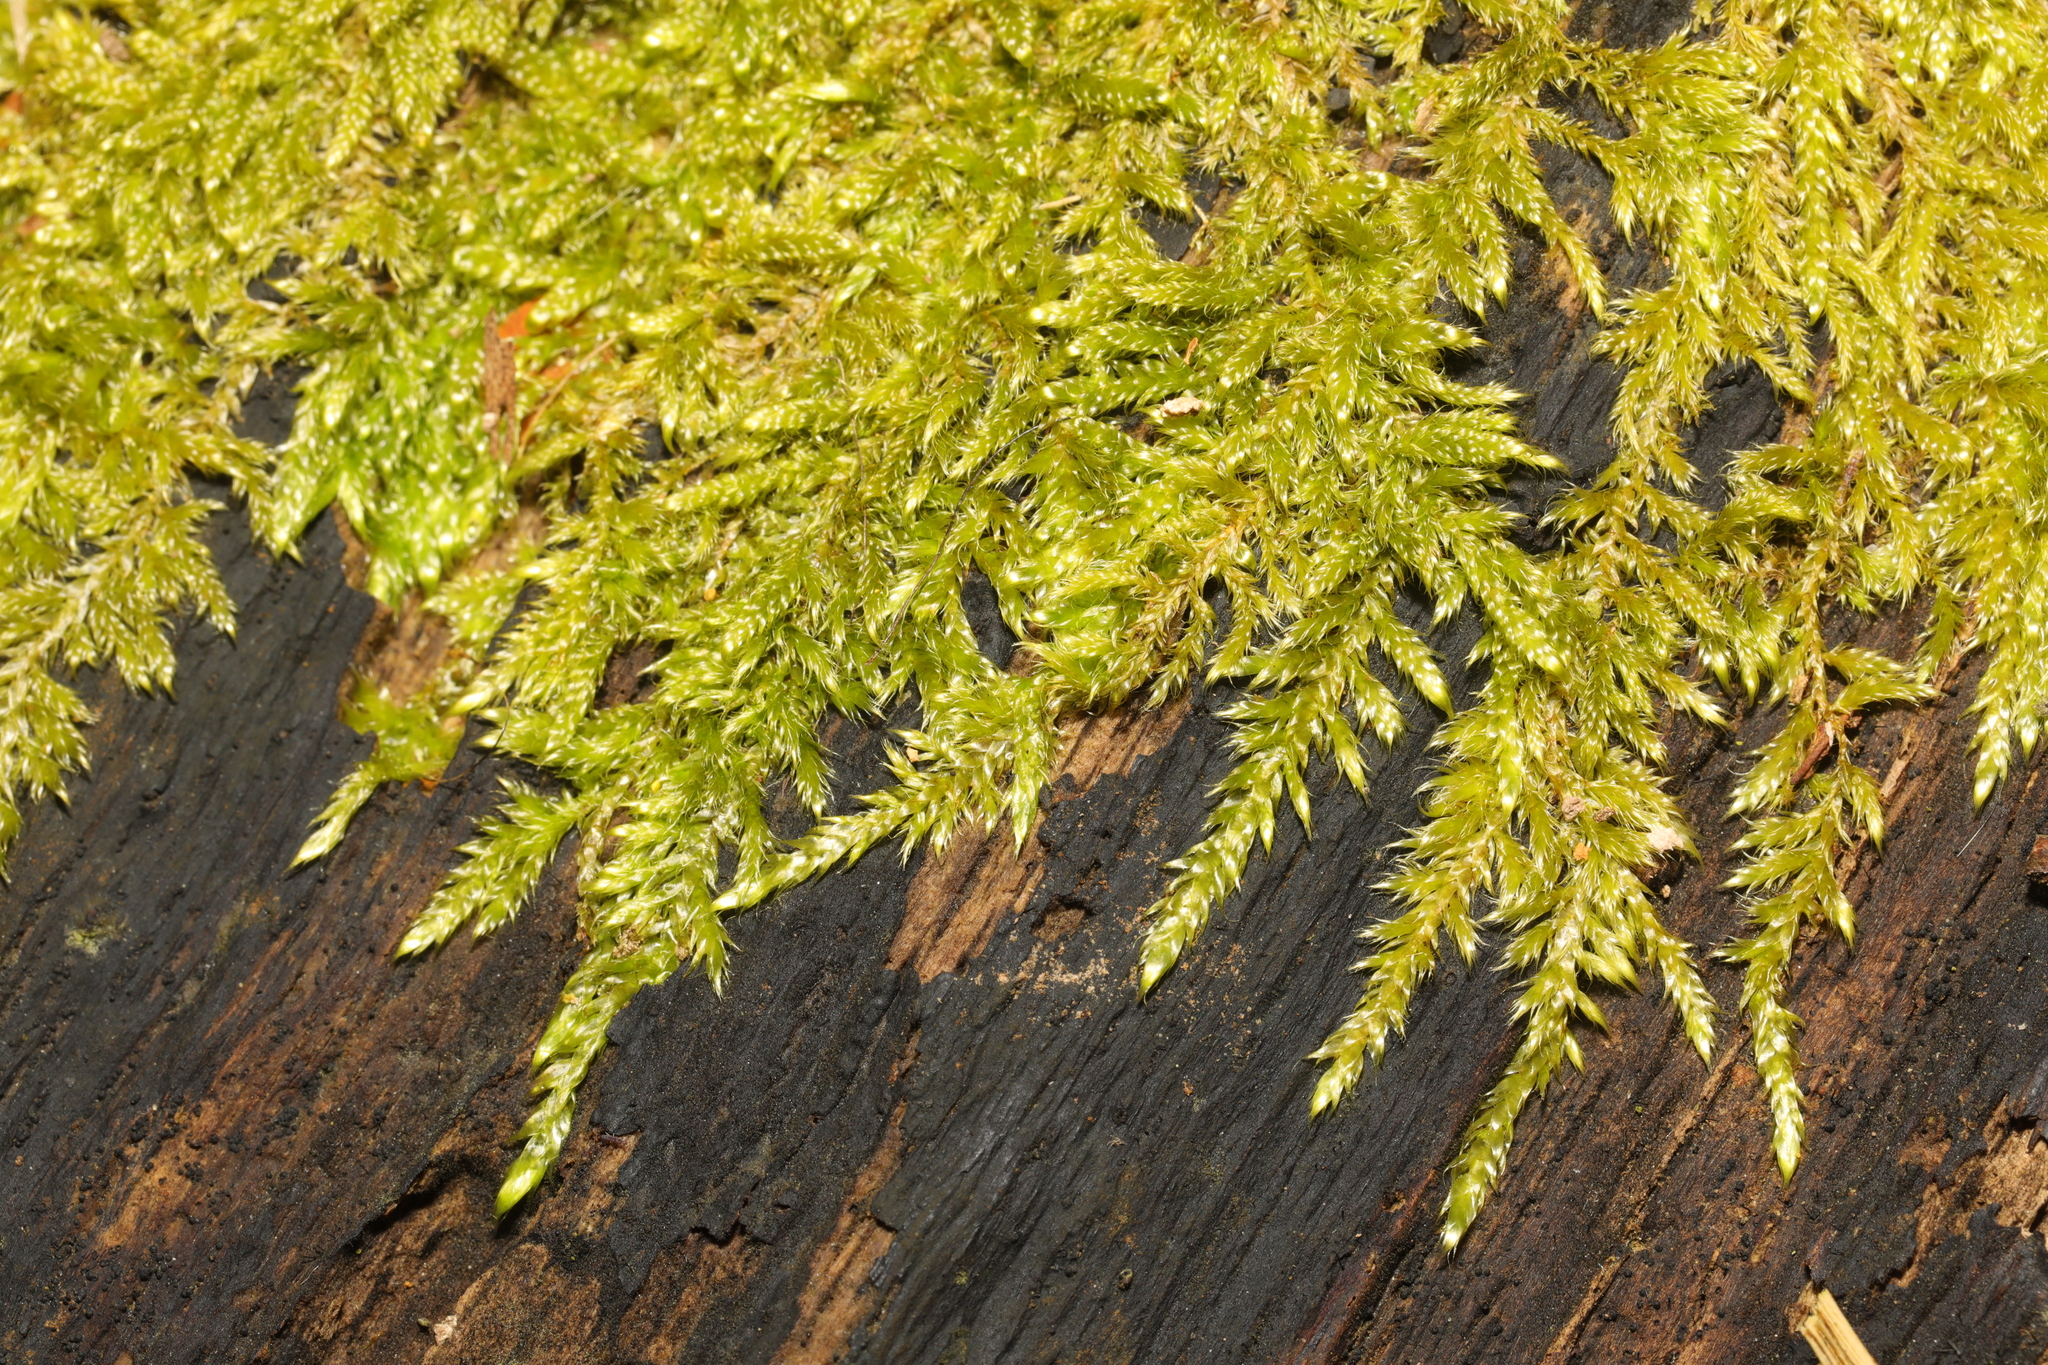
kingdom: Plantae
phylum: Bryophyta
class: Bryopsida
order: Hypnales
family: Hypnaceae
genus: Hypnum
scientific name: Hypnum cupressiforme
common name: Cypress-leaved plait-moss
